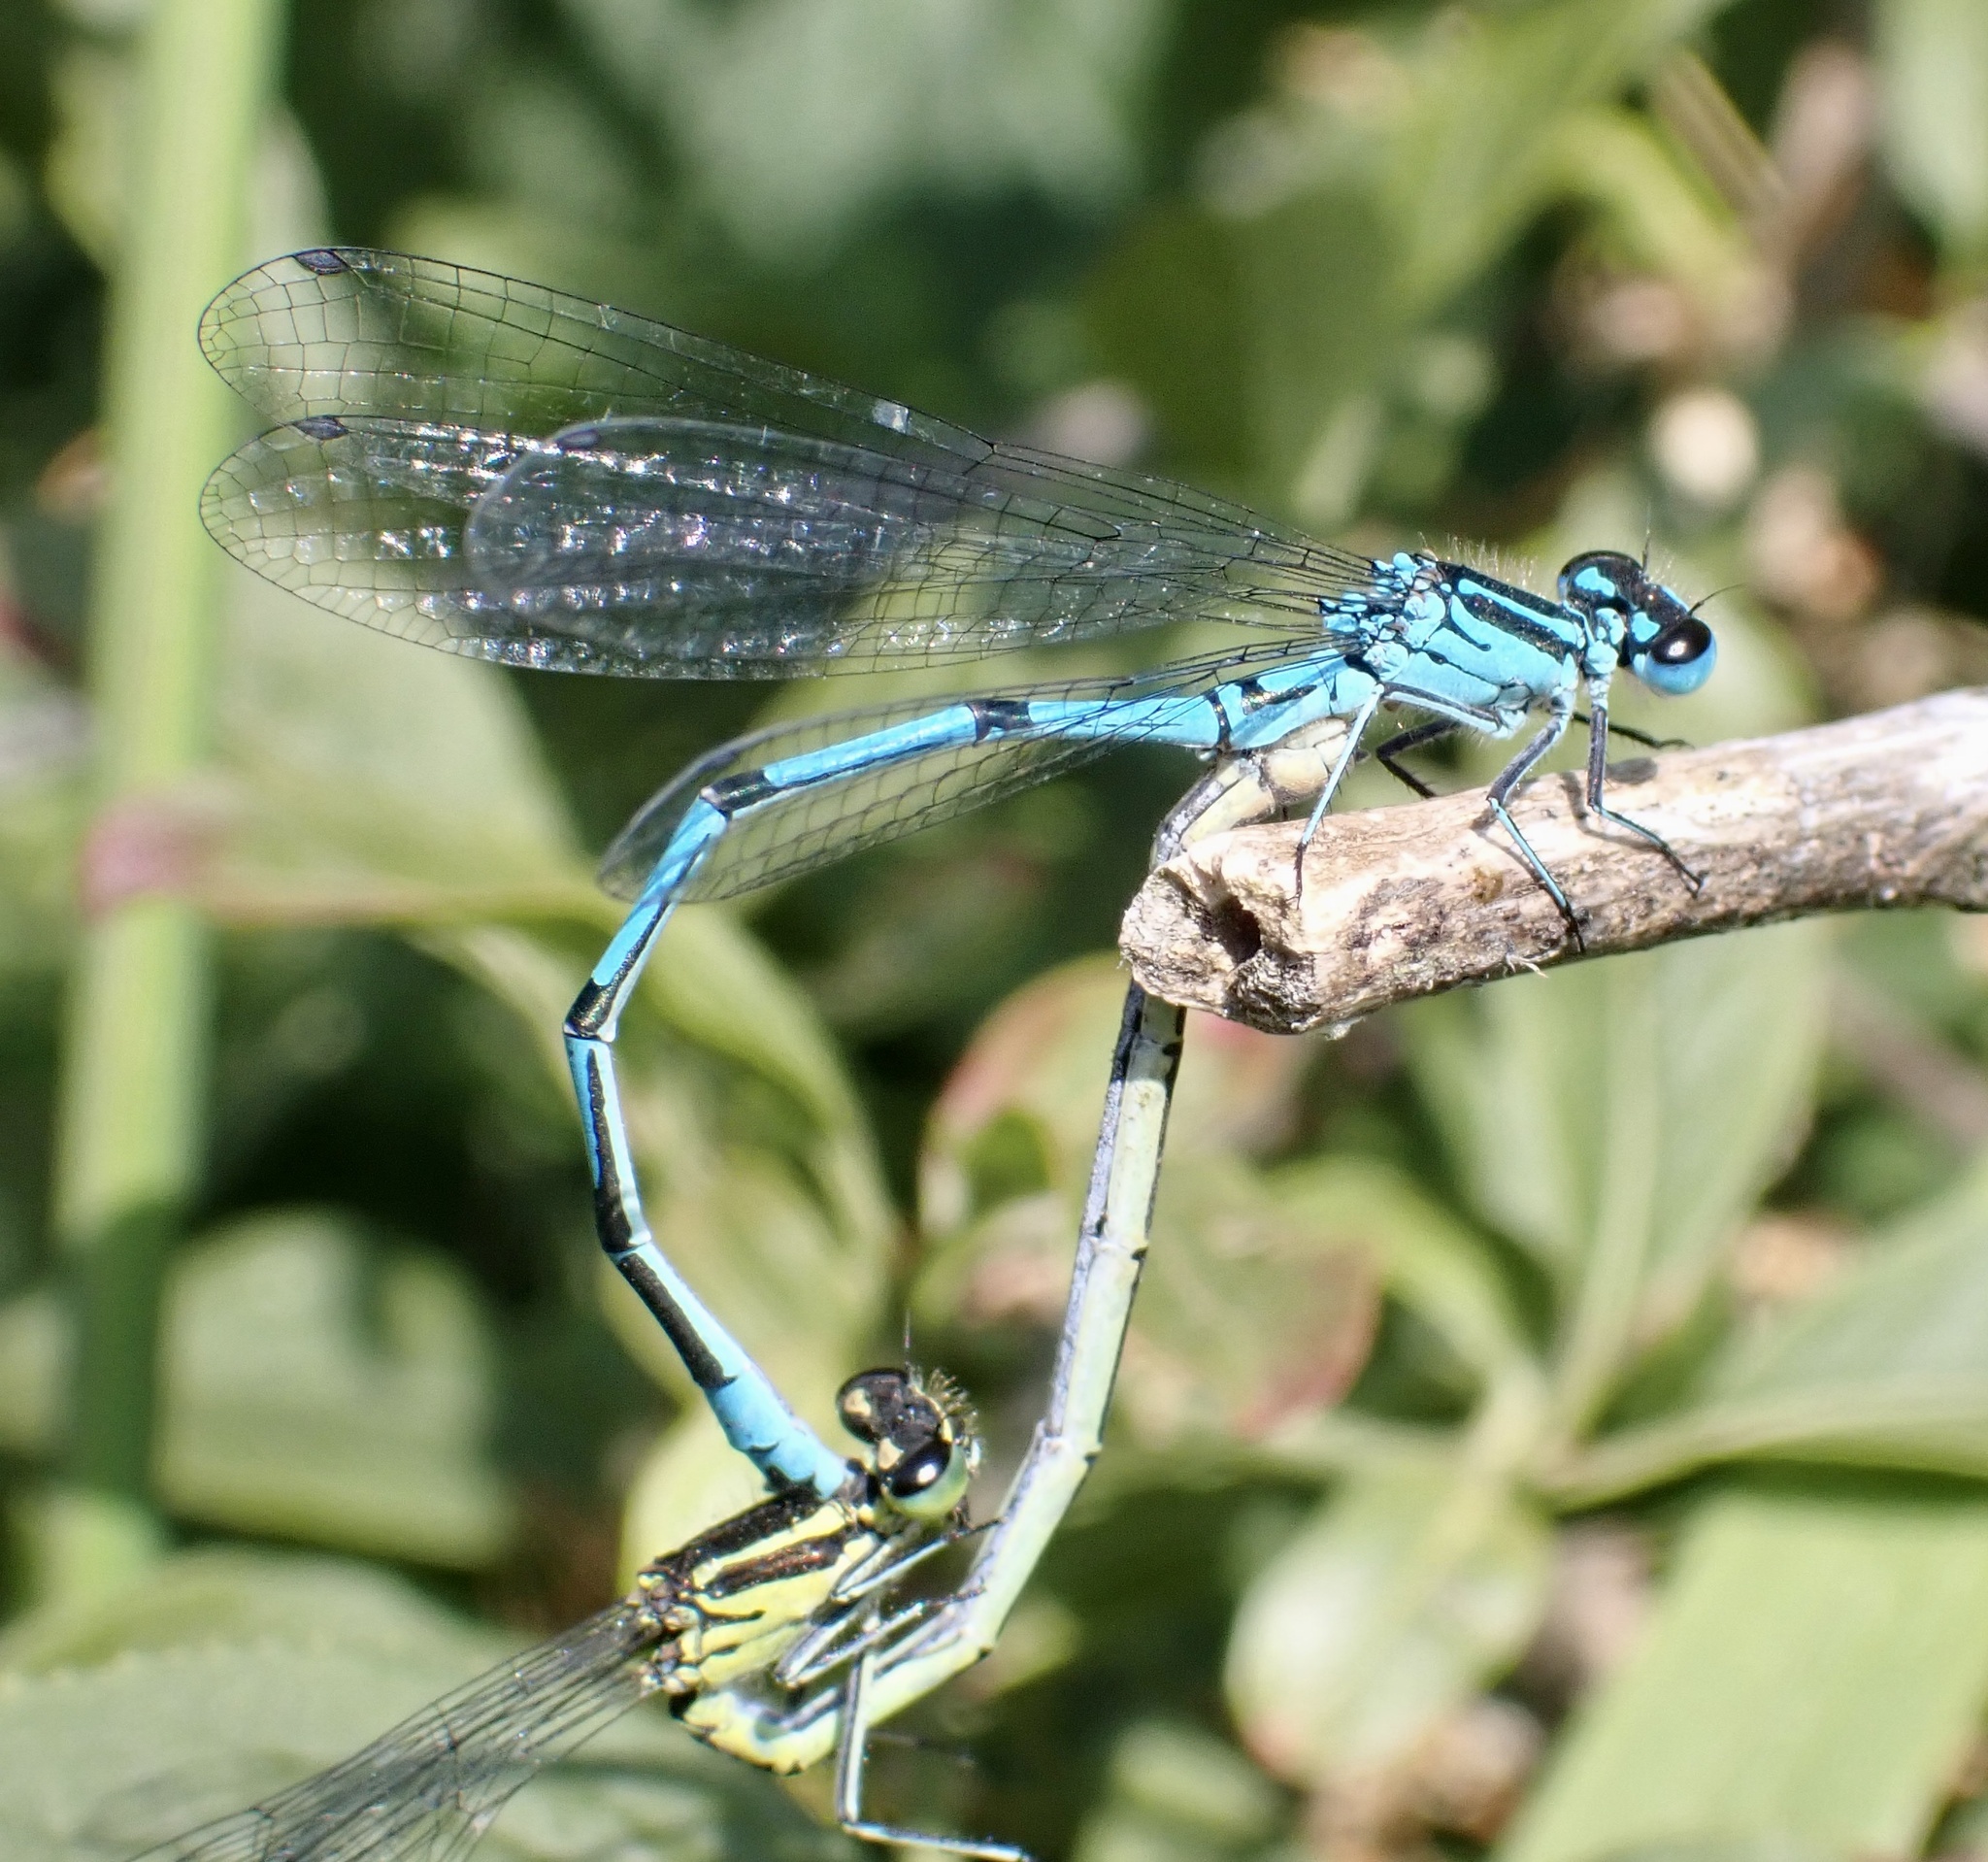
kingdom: Animalia
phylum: Arthropoda
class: Insecta
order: Odonata
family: Coenagrionidae
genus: Coenagrion
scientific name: Coenagrion puella
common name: Azure damselfly
